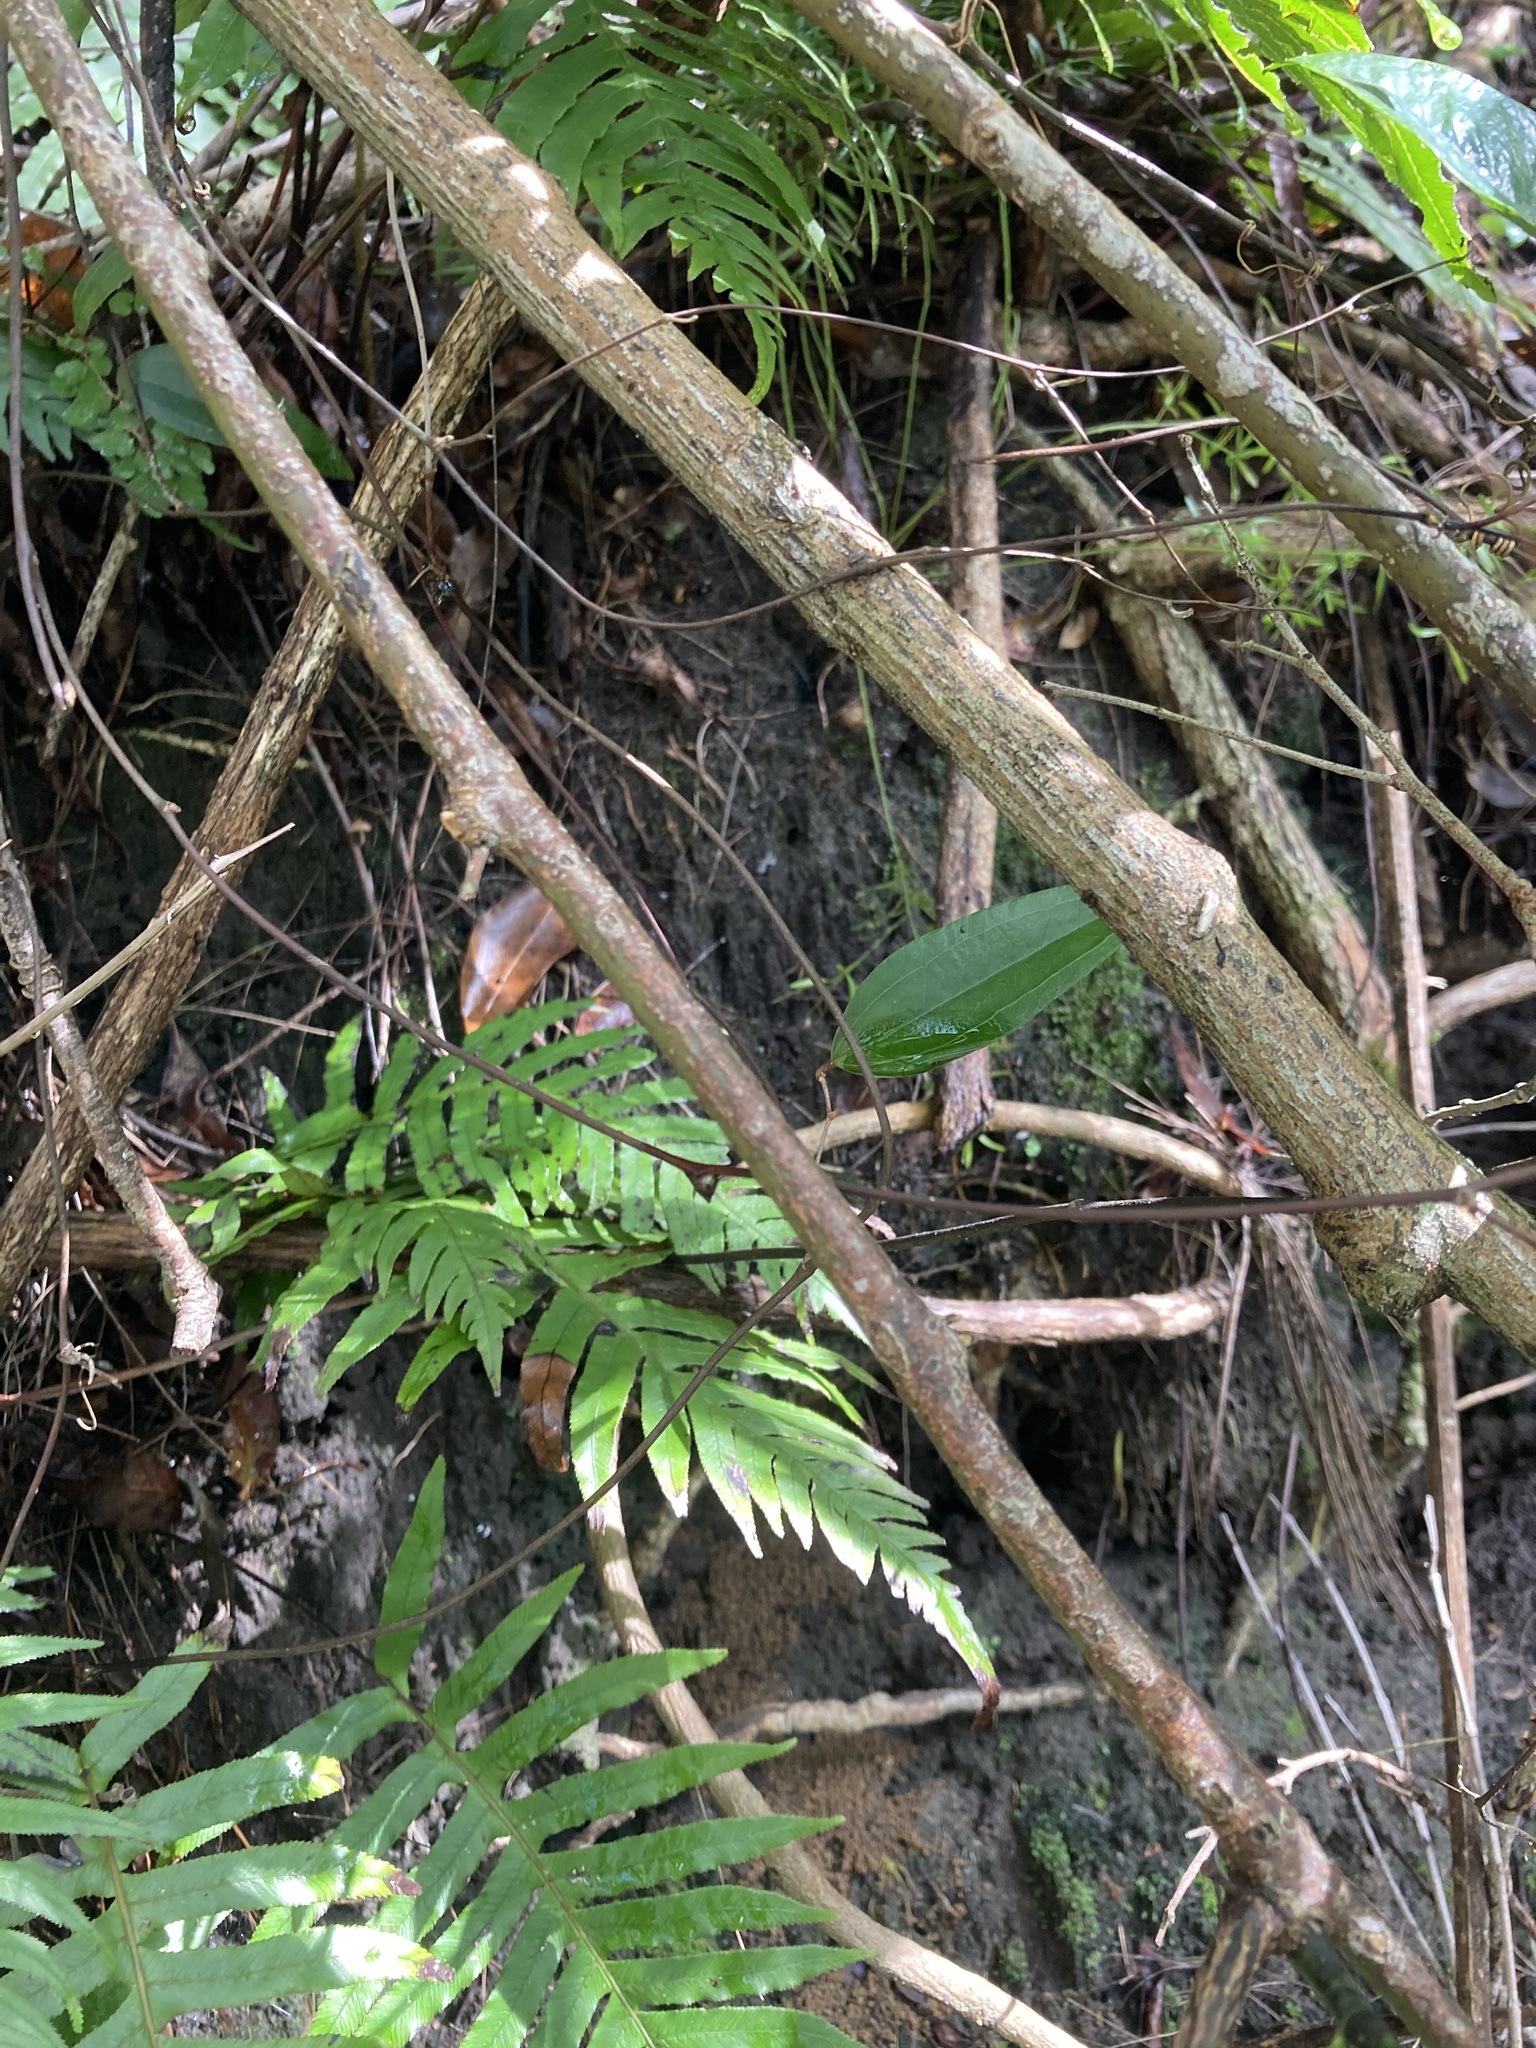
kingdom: Plantae
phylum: Tracheophyta
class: Magnoliopsida
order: Magnoliales
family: Eupomatiaceae
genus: Eupomatia
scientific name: Eupomatia laurina
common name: Bolwarra
